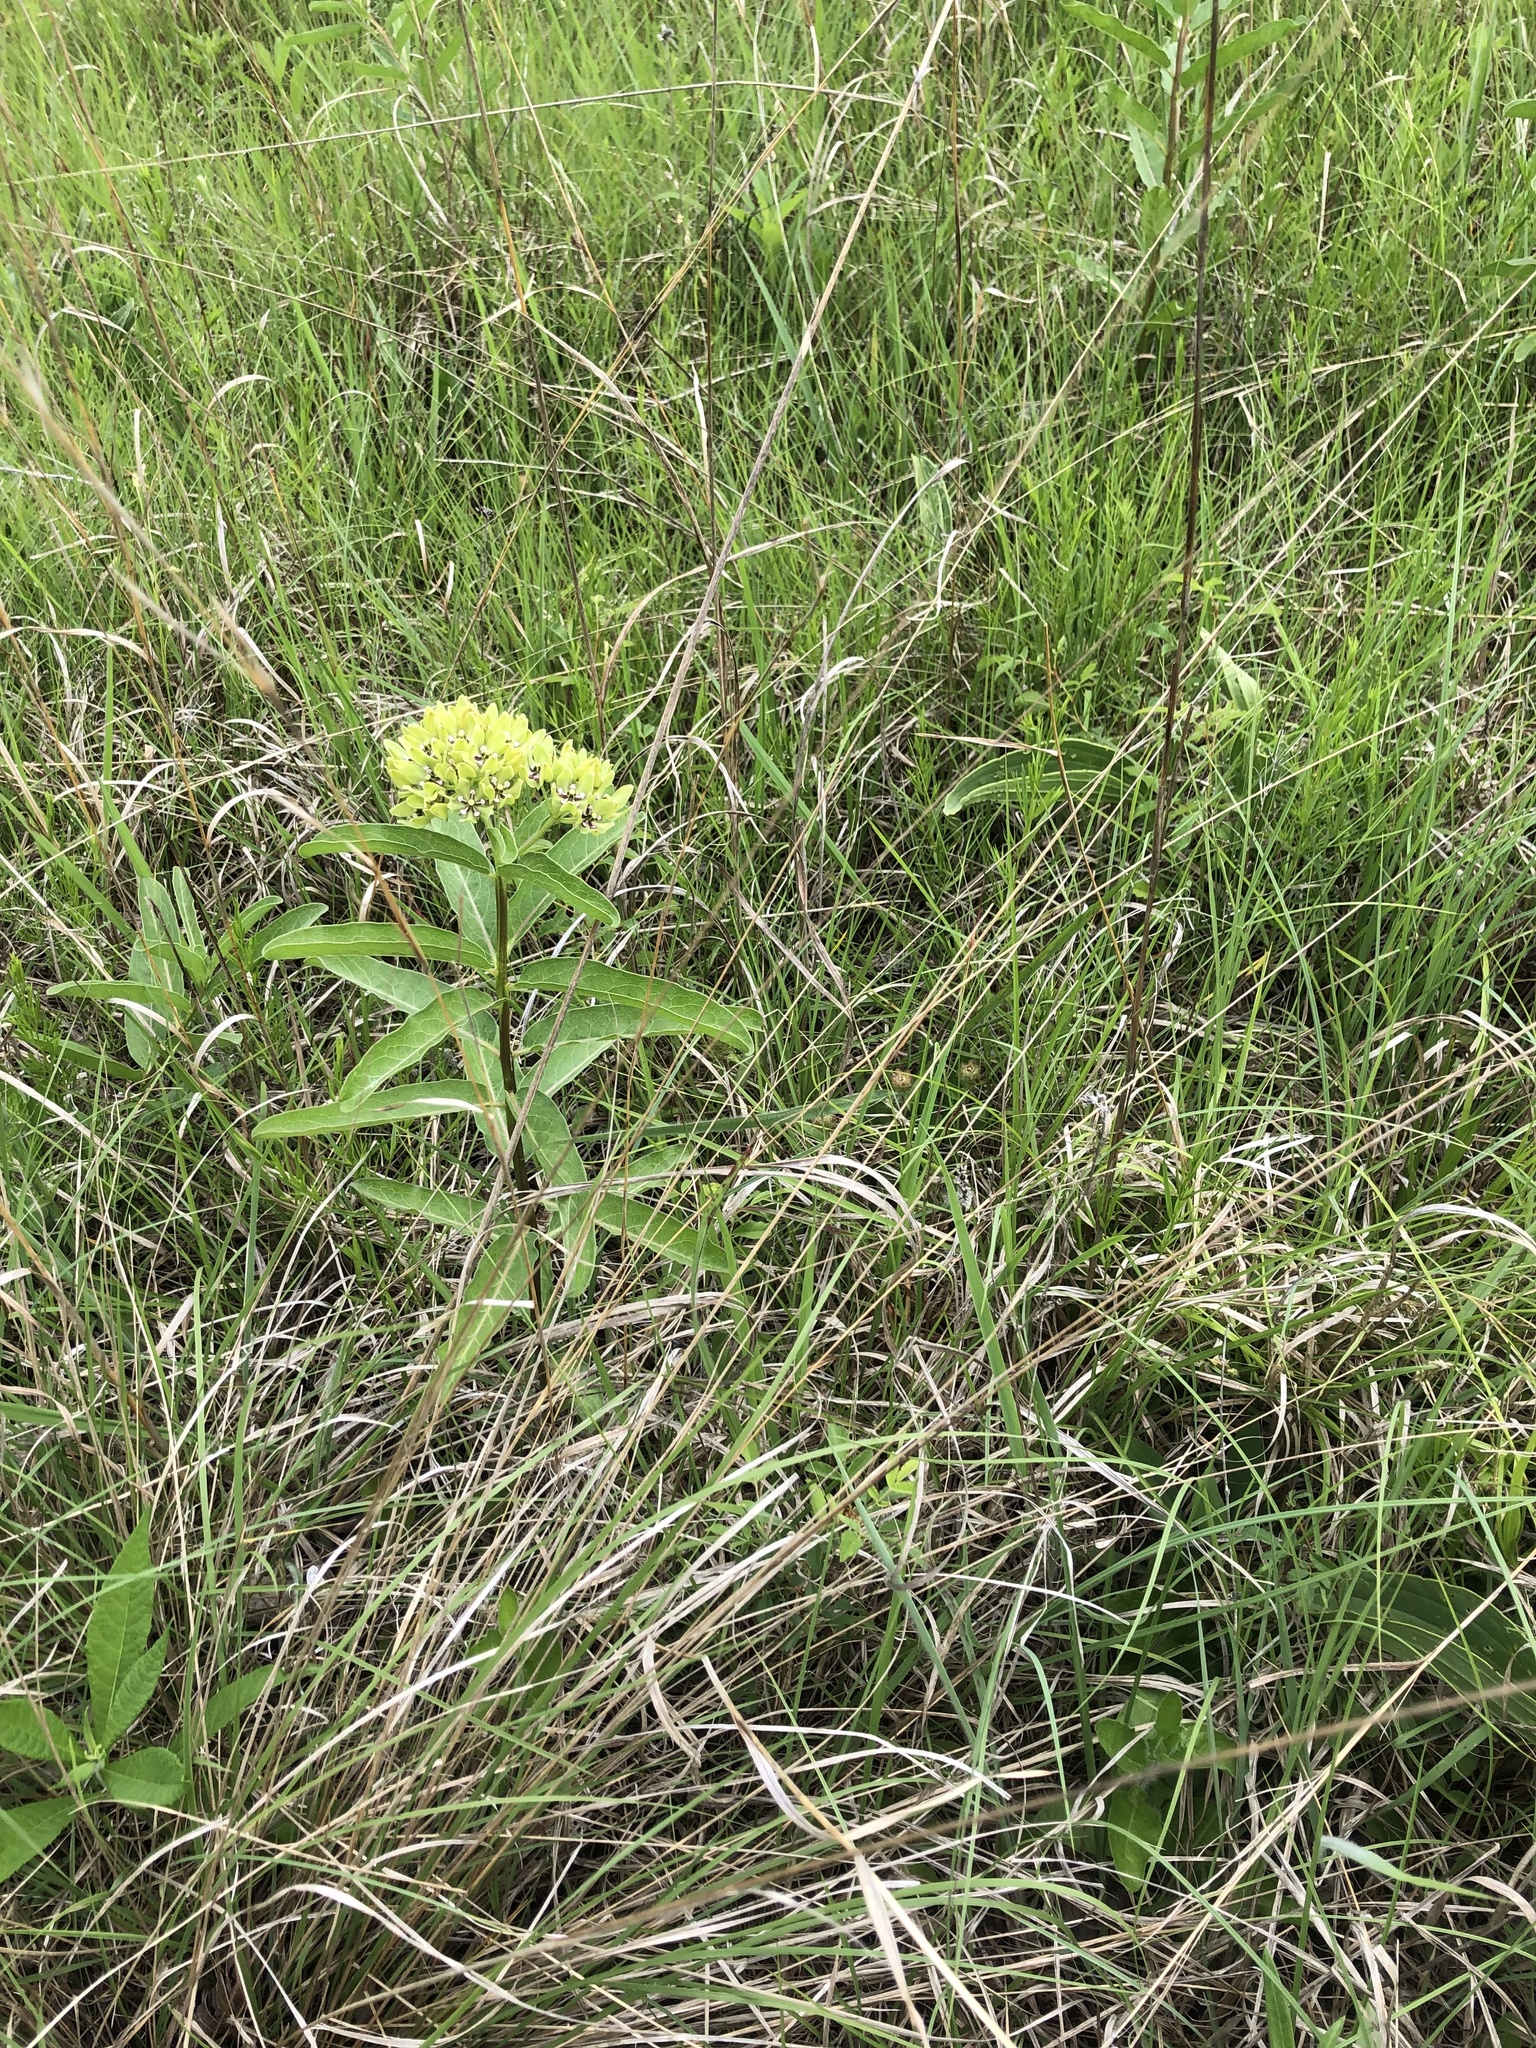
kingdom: Plantae
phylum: Tracheophyta
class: Magnoliopsida
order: Gentianales
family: Apocynaceae
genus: Asclepias
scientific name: Asclepias viridis
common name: Antelope-horns
